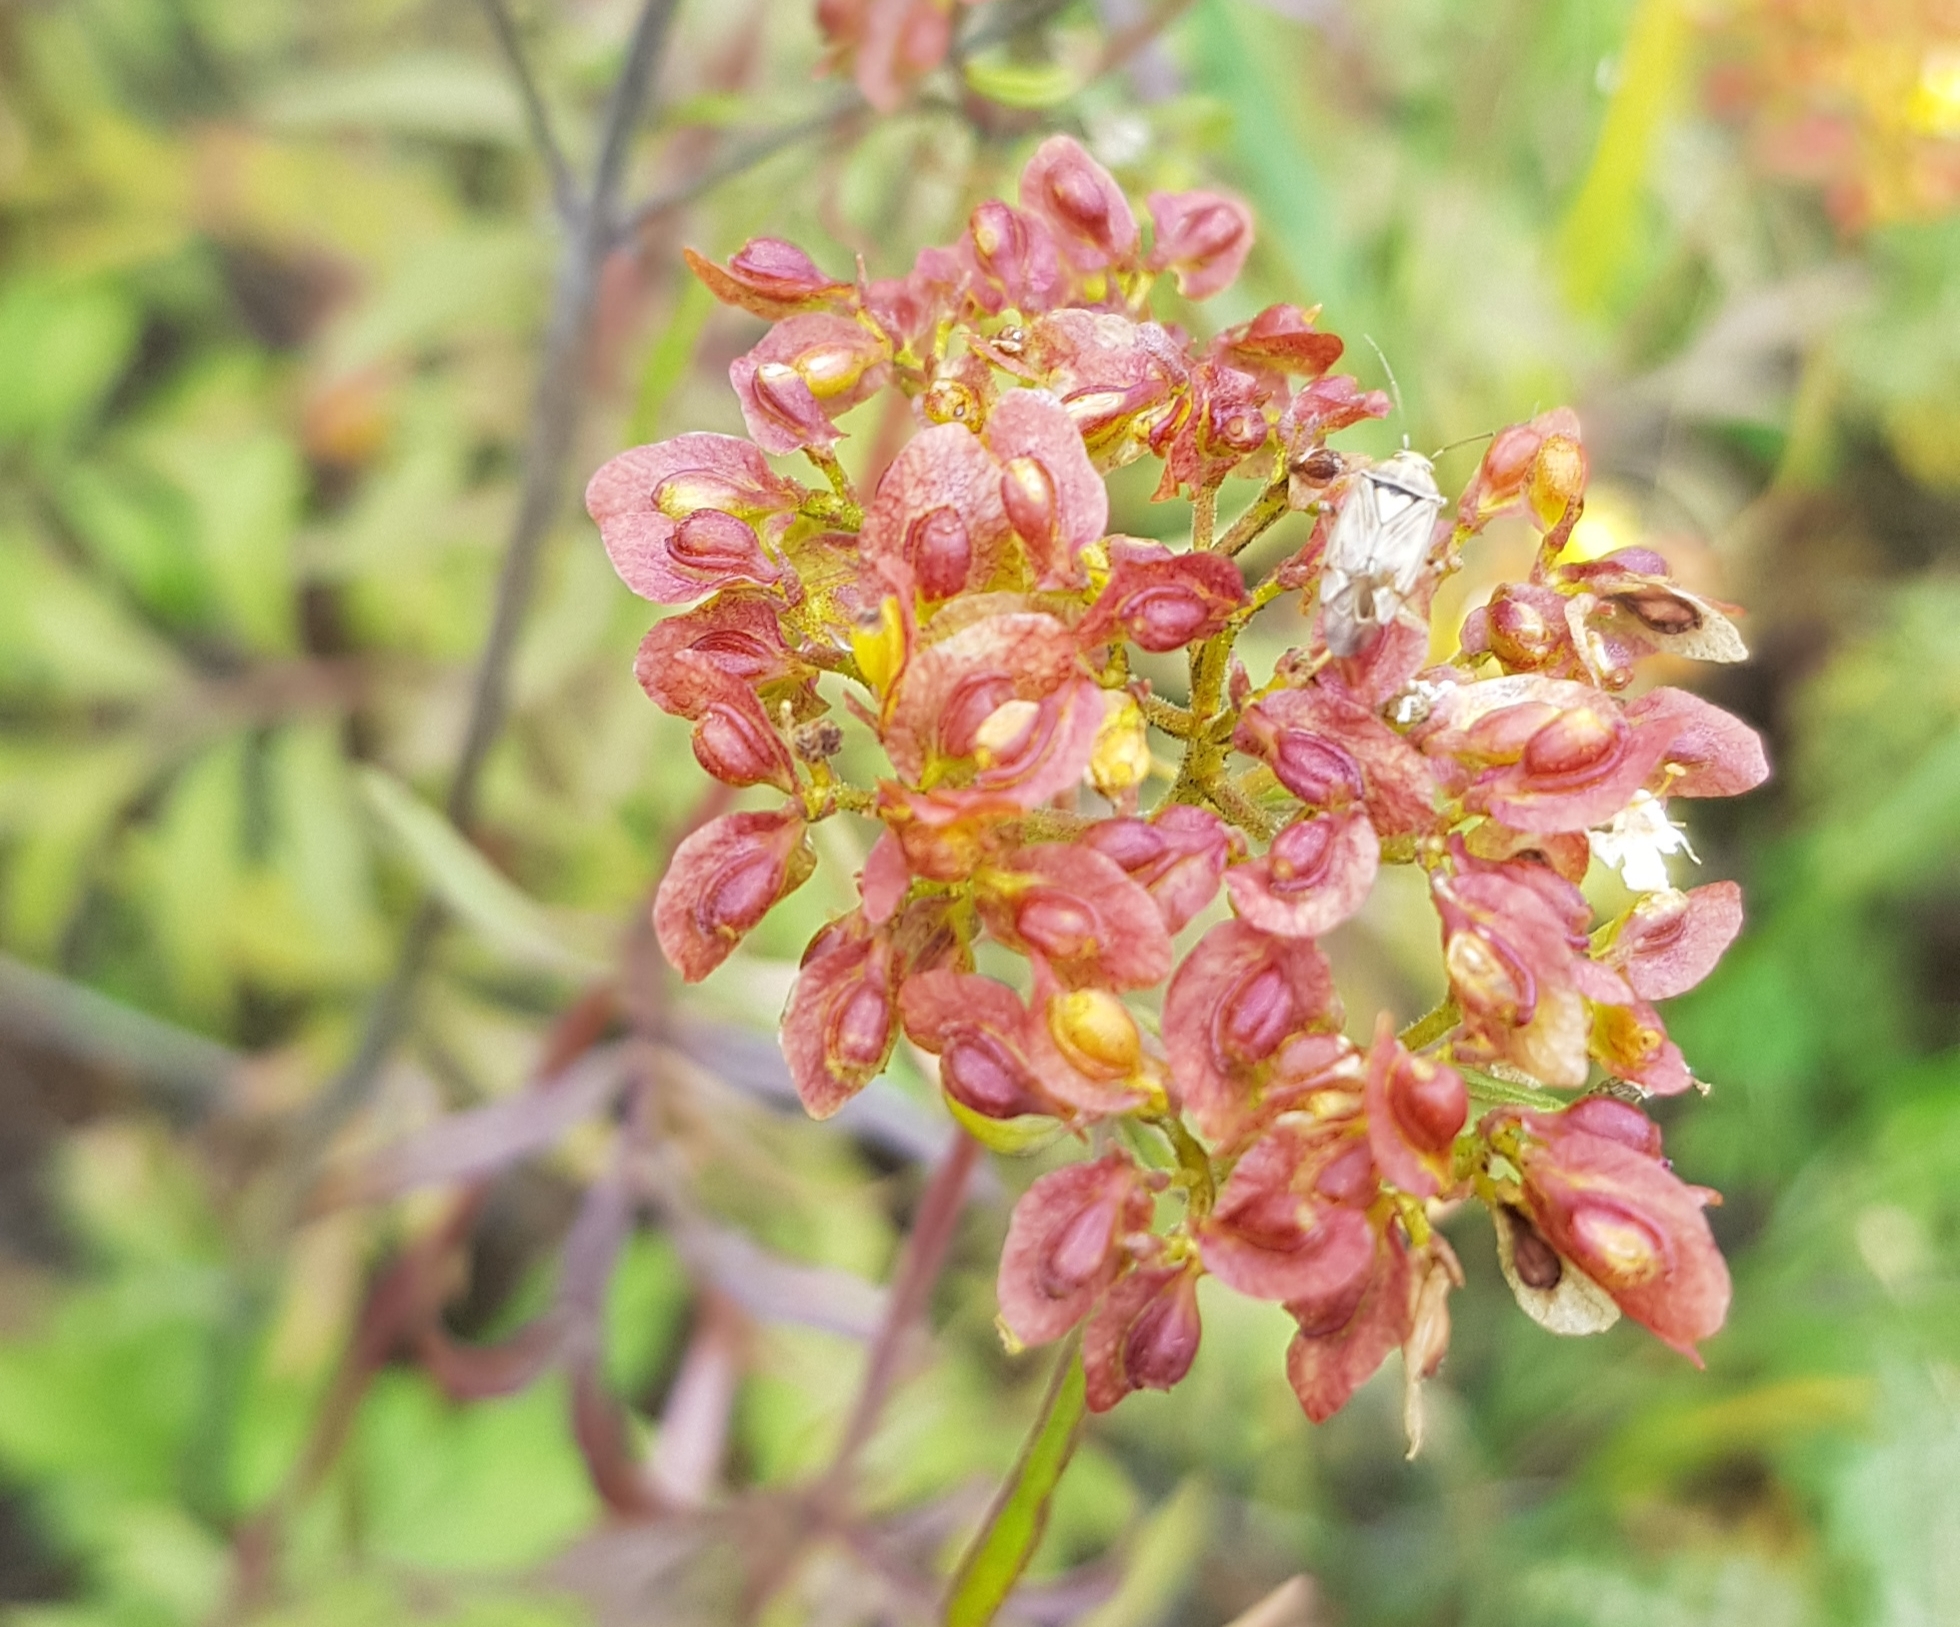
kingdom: Plantae
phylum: Tracheophyta
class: Magnoliopsida
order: Dipsacales
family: Caprifoliaceae
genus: Patrinia
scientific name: Patrinia rupestris
